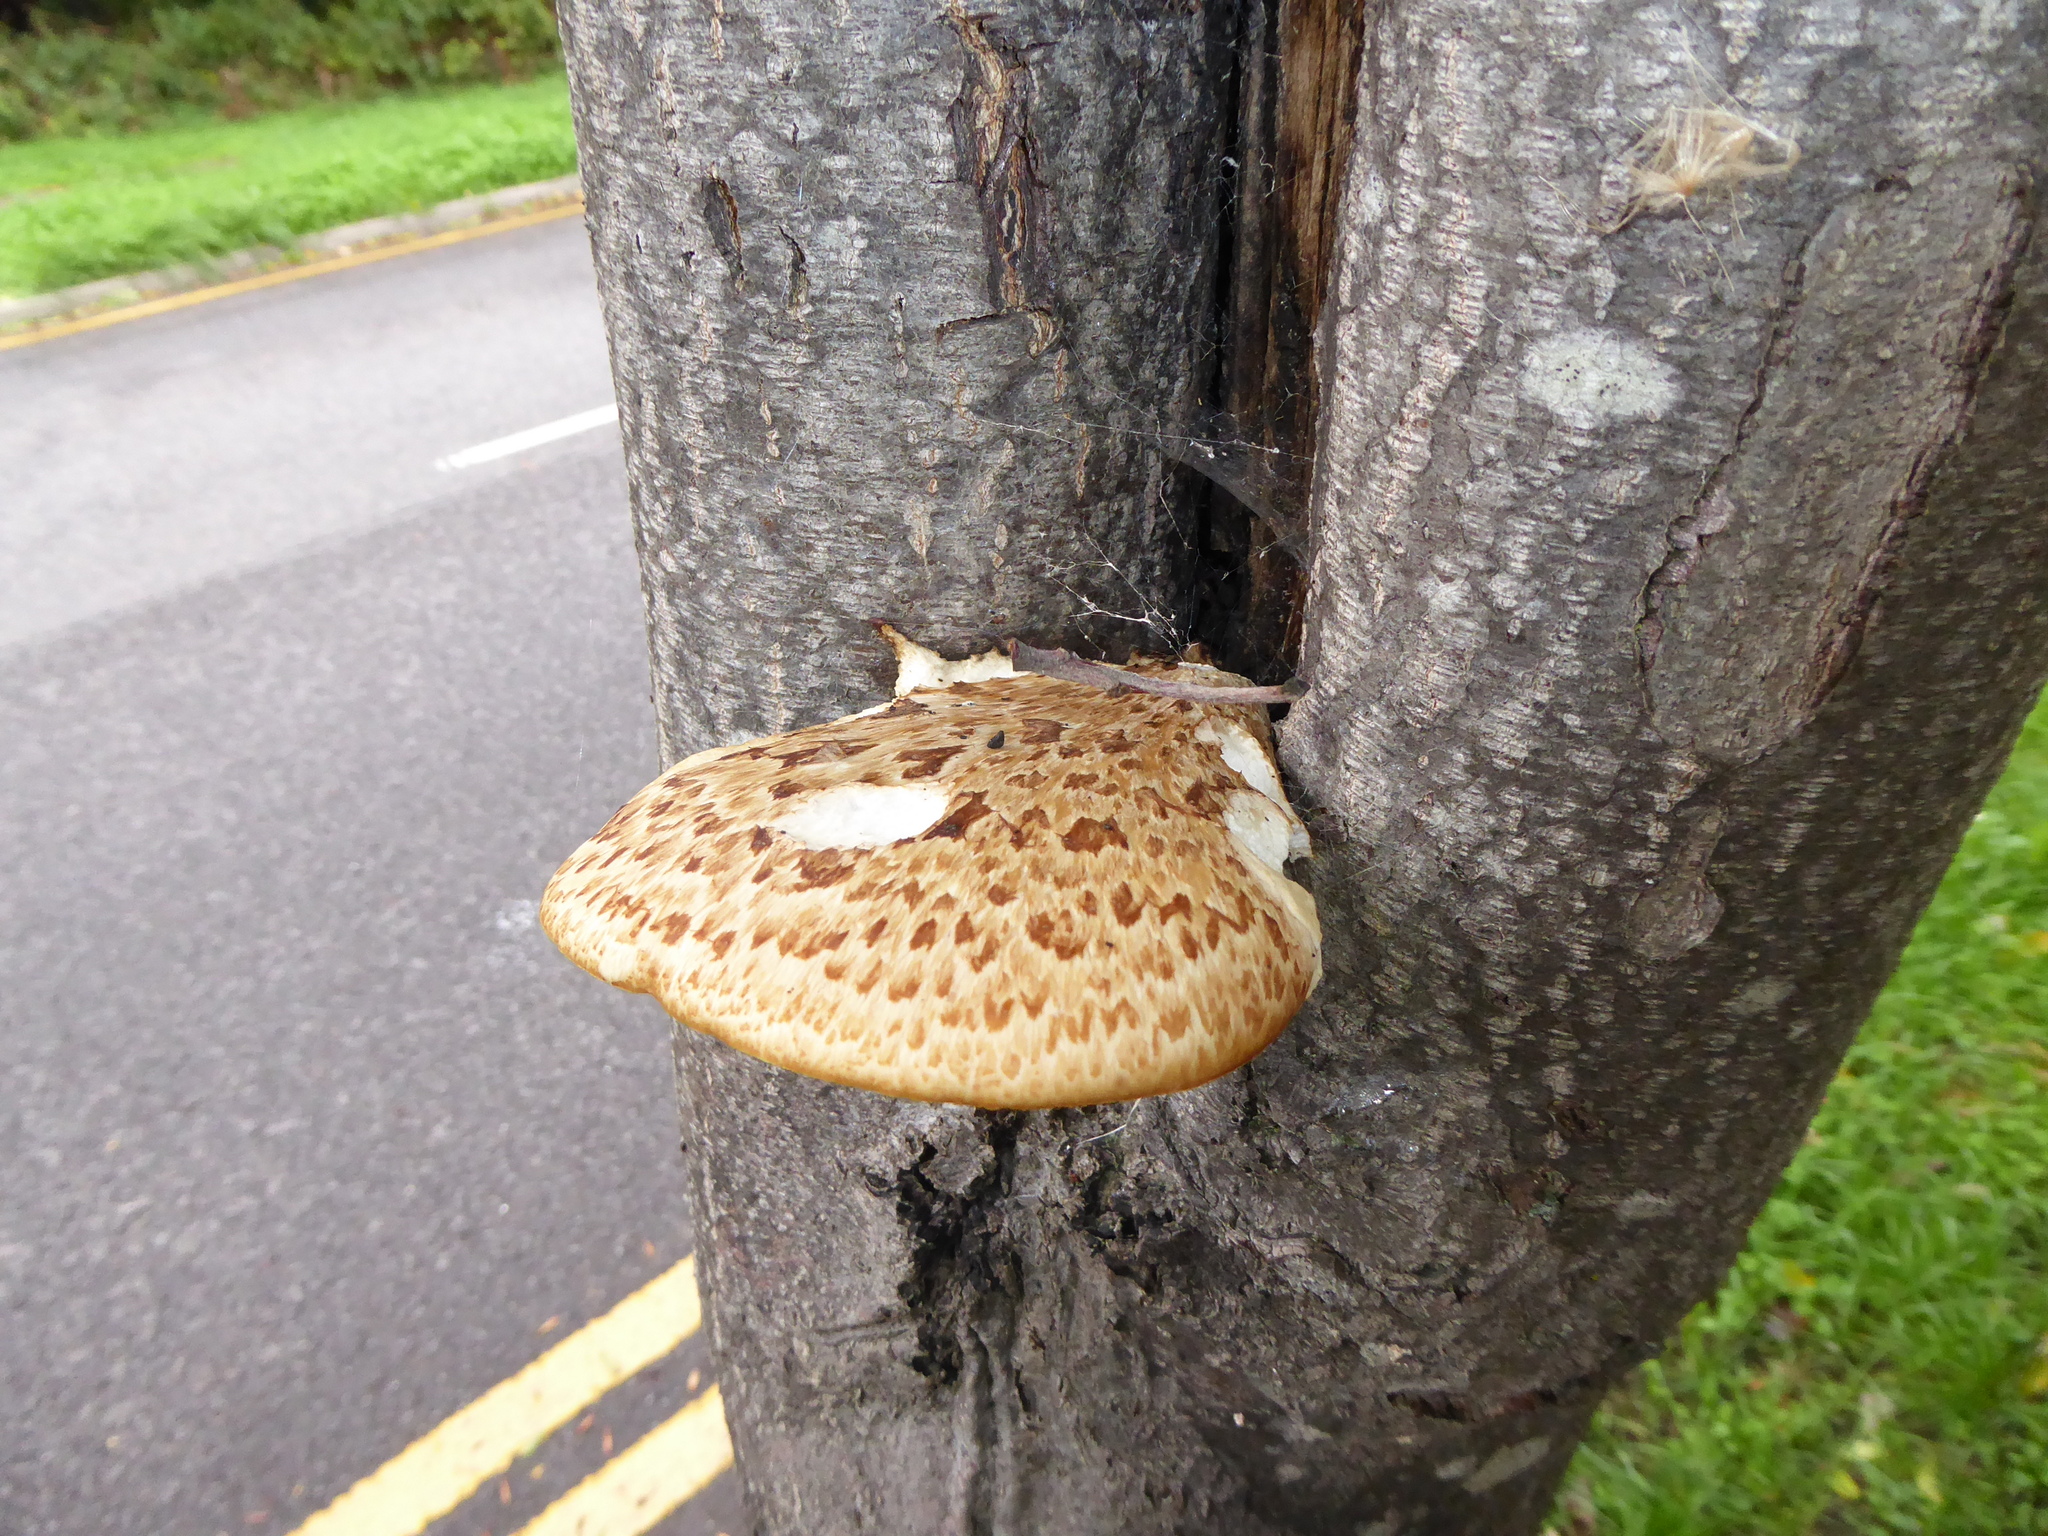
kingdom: Fungi
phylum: Basidiomycota
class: Agaricomycetes
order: Polyporales
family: Polyporaceae
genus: Cerioporus
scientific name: Cerioporus squamosus
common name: Dryad's saddle
